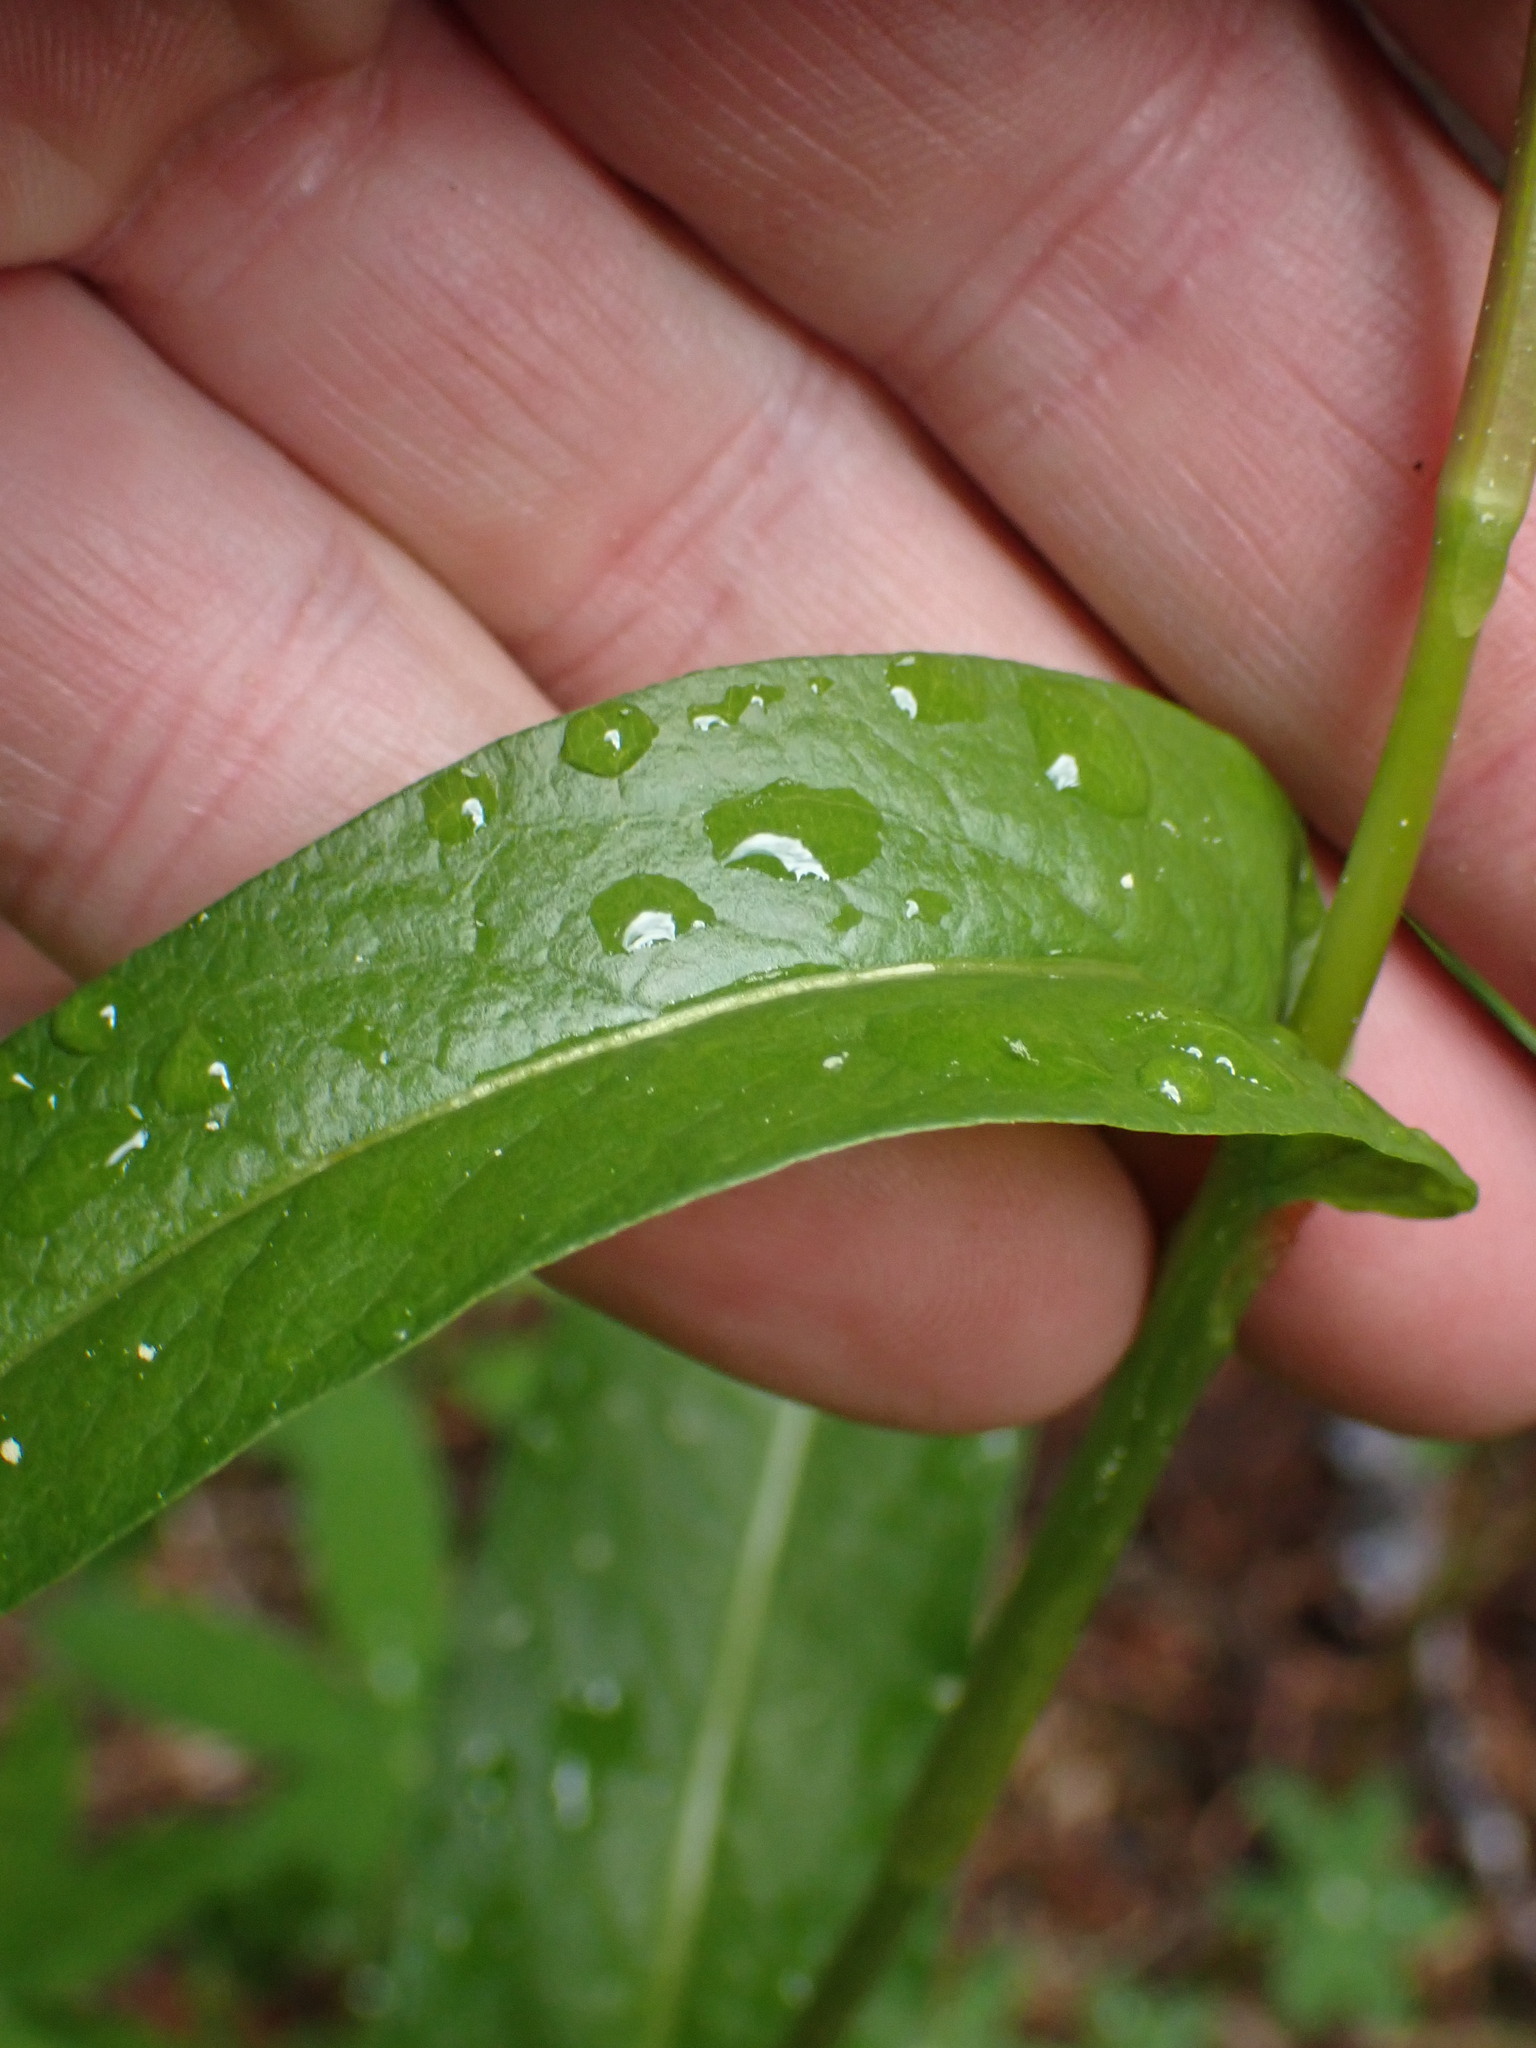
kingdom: Plantae
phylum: Tracheophyta
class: Magnoliopsida
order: Caryophyllales
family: Polygonaceae
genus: Bistorta
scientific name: Bistorta bistortoides
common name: American bistort
